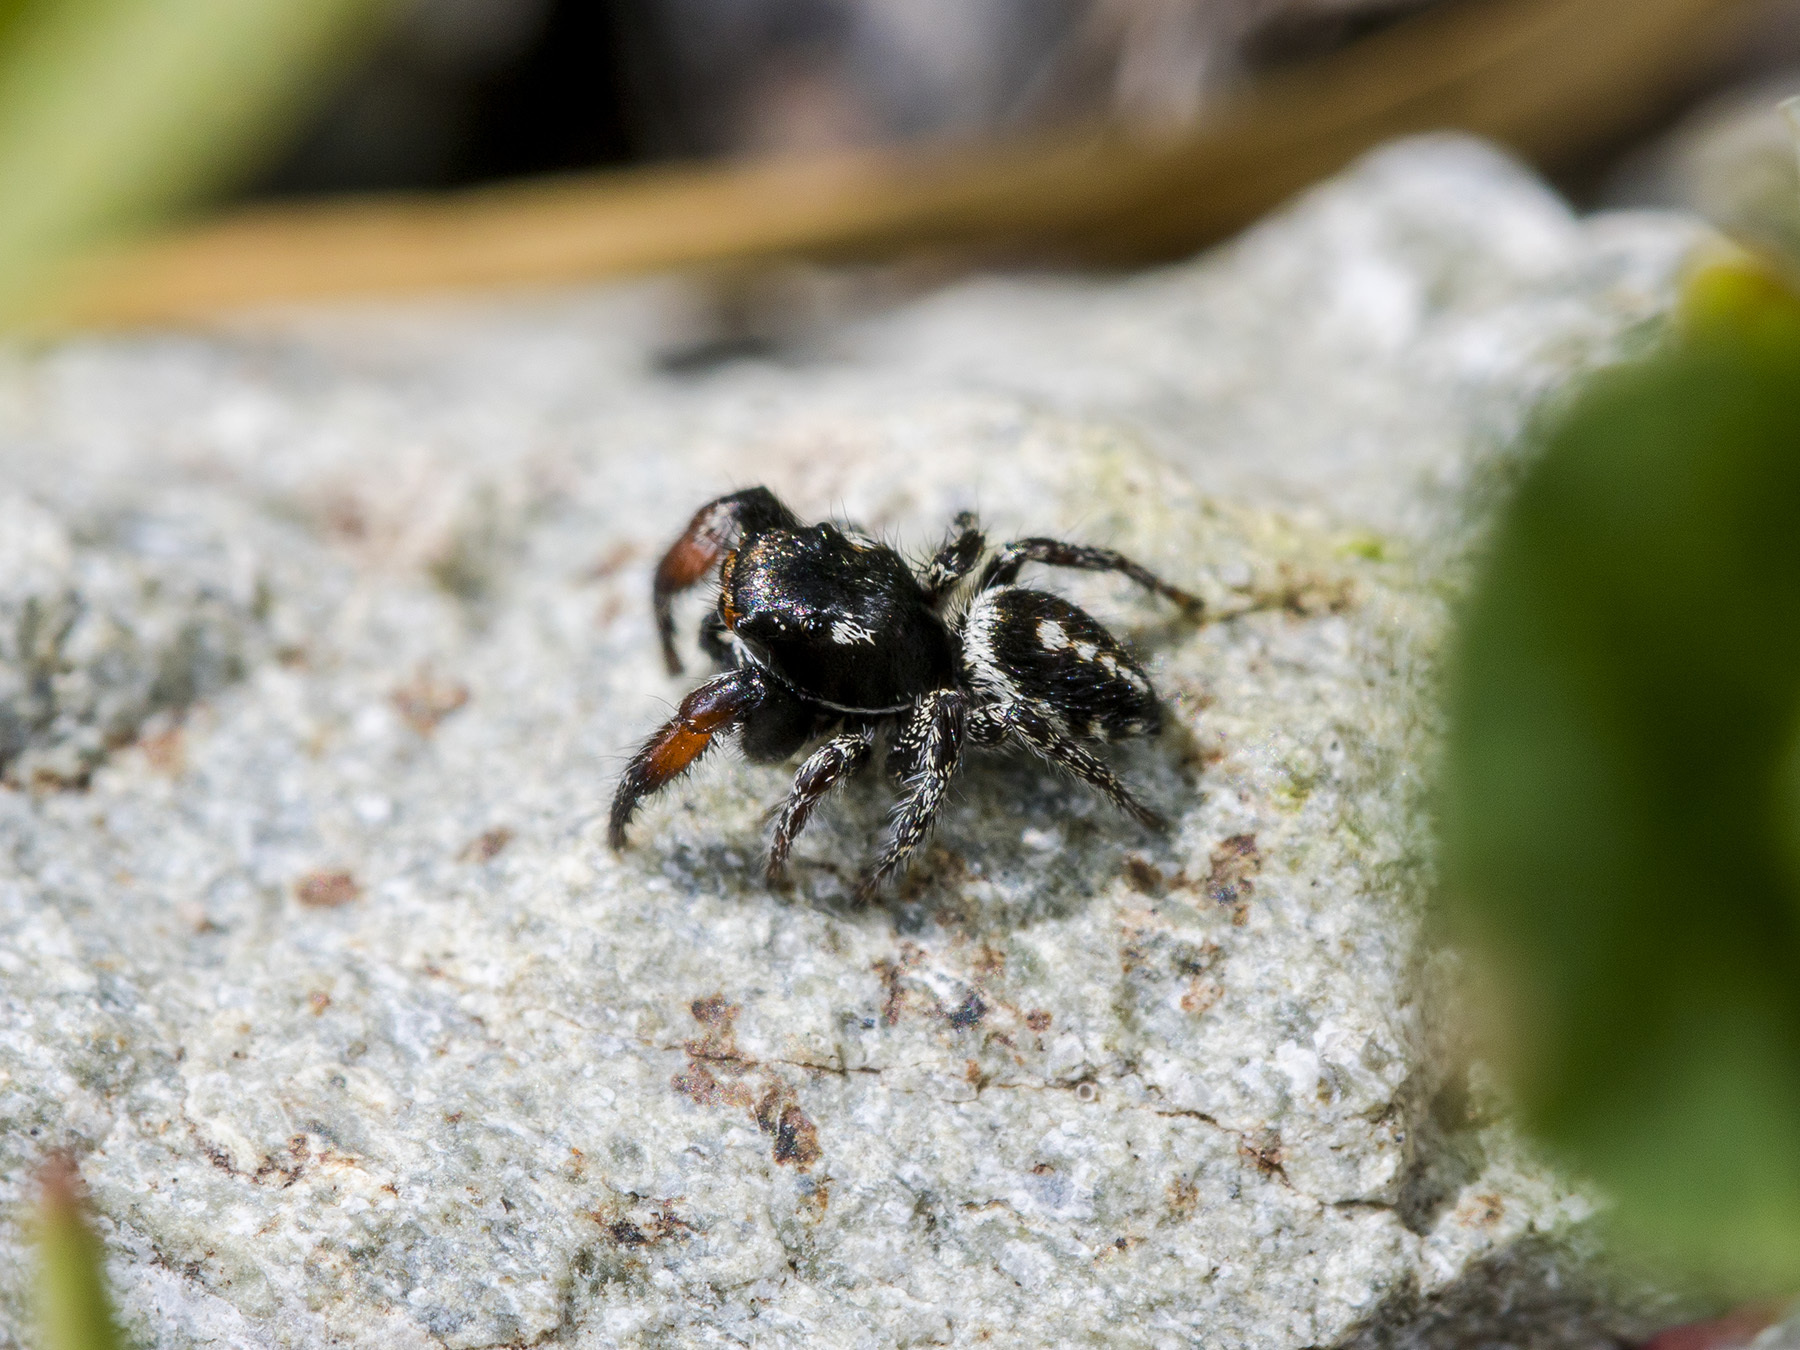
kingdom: Animalia
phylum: Arthropoda
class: Arachnida
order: Araneae
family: Salticidae
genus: Pellenes
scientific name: Pellenes allegrii
